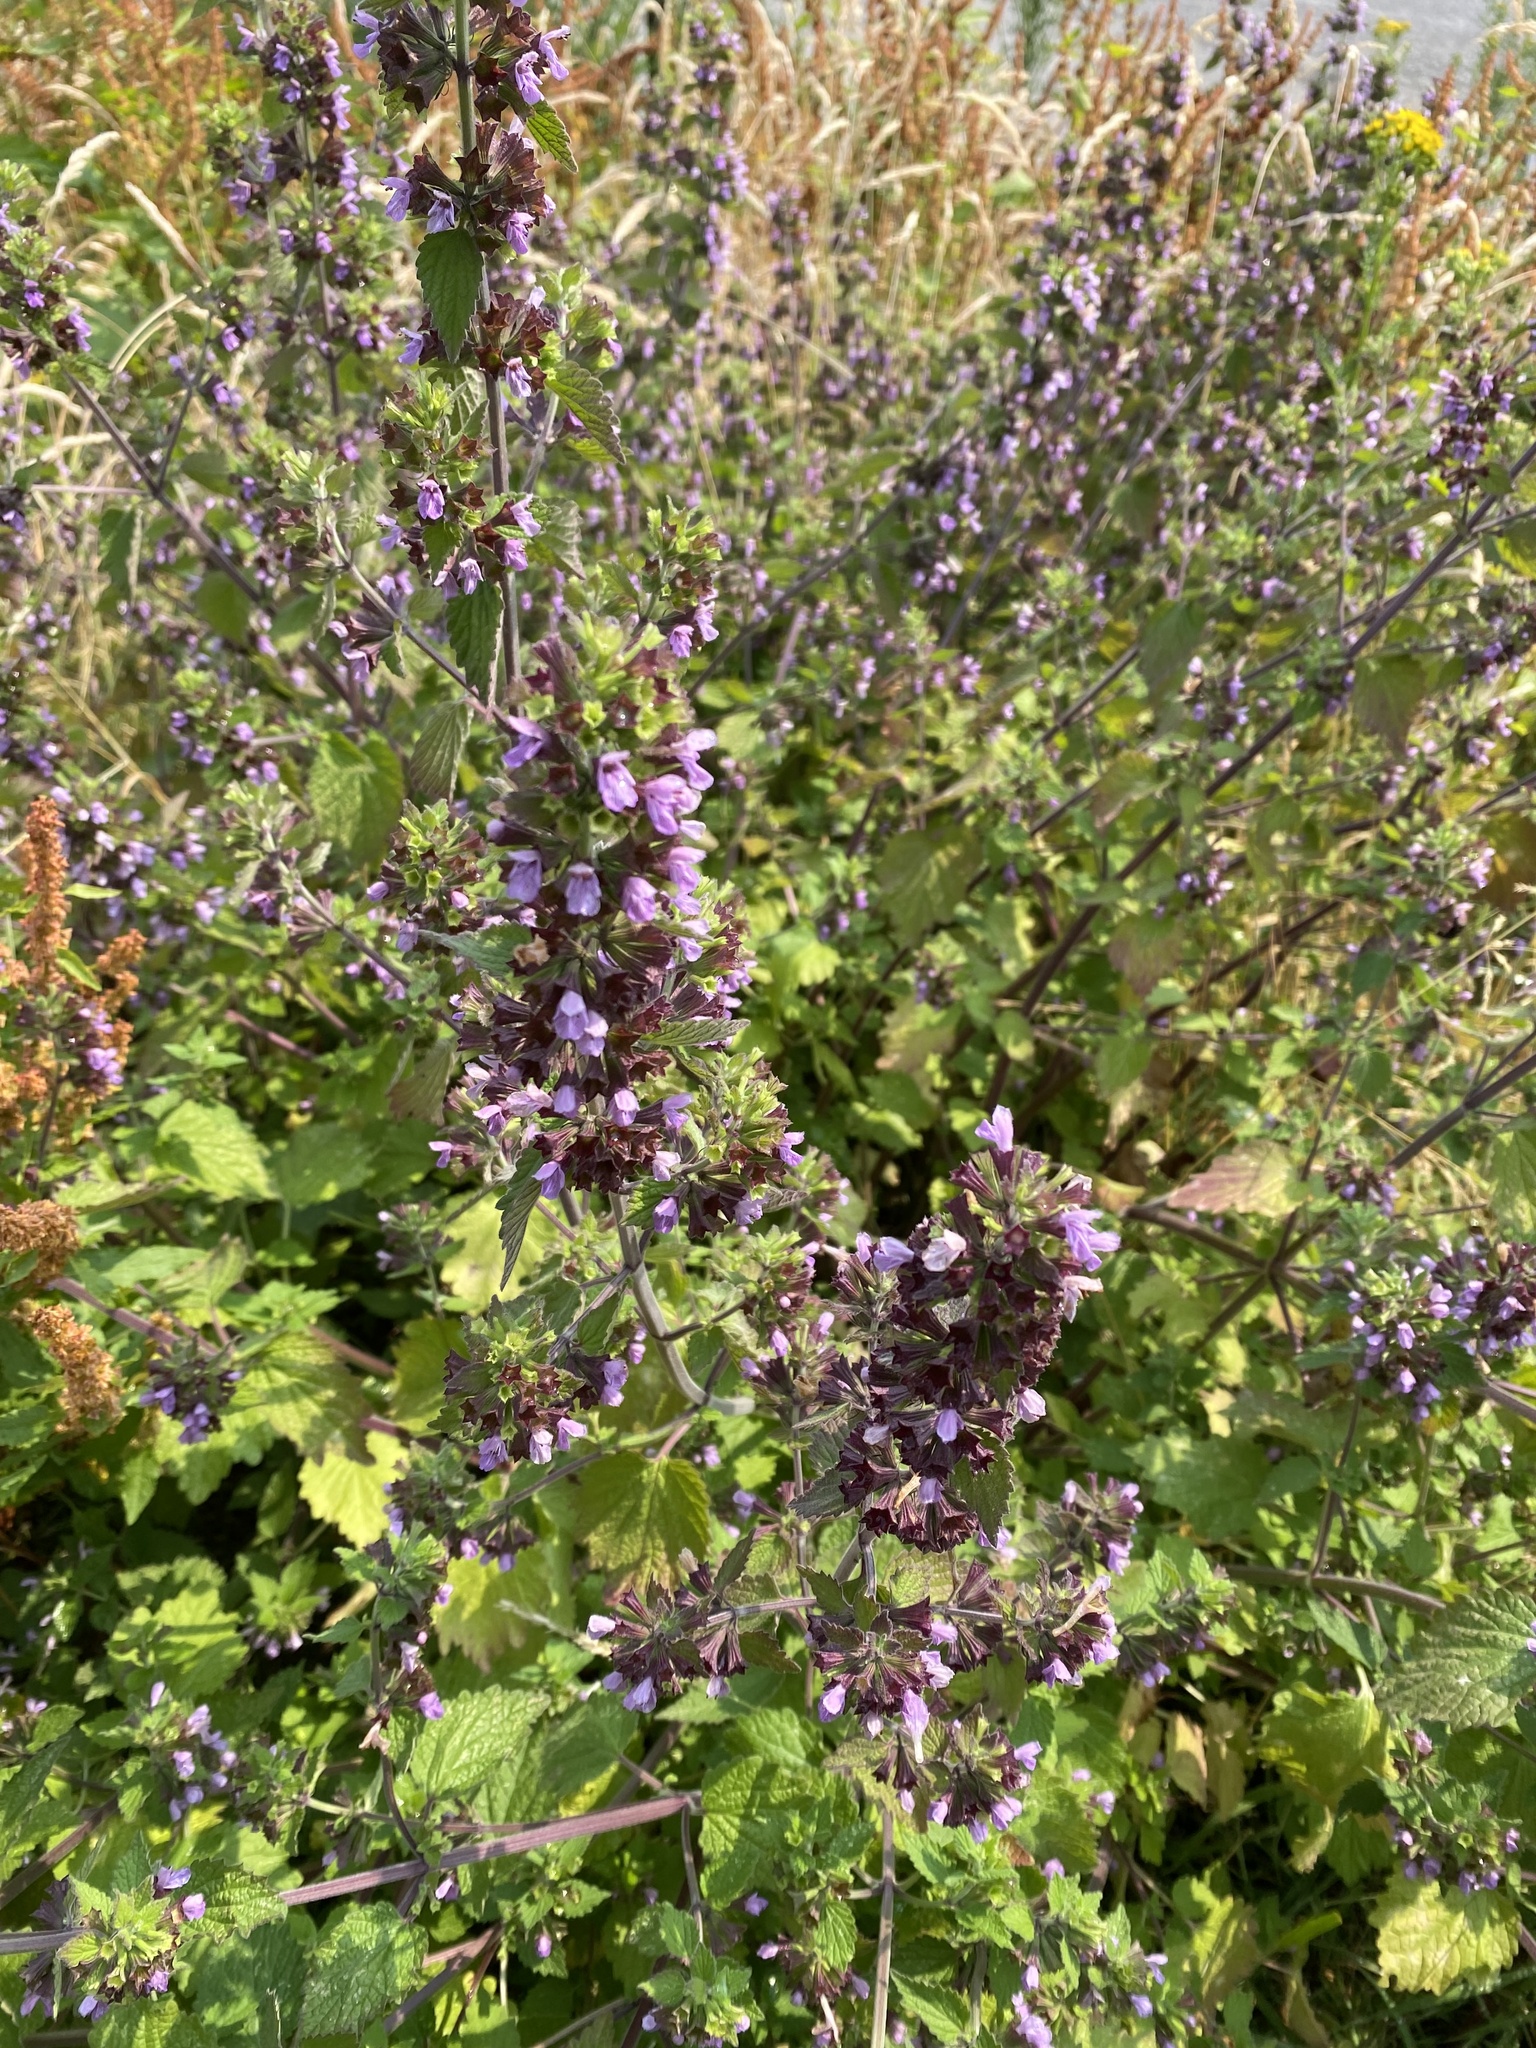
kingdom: Plantae
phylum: Tracheophyta
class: Magnoliopsida
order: Lamiales
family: Lamiaceae
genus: Ballota
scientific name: Ballota nigra
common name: Black horehound
